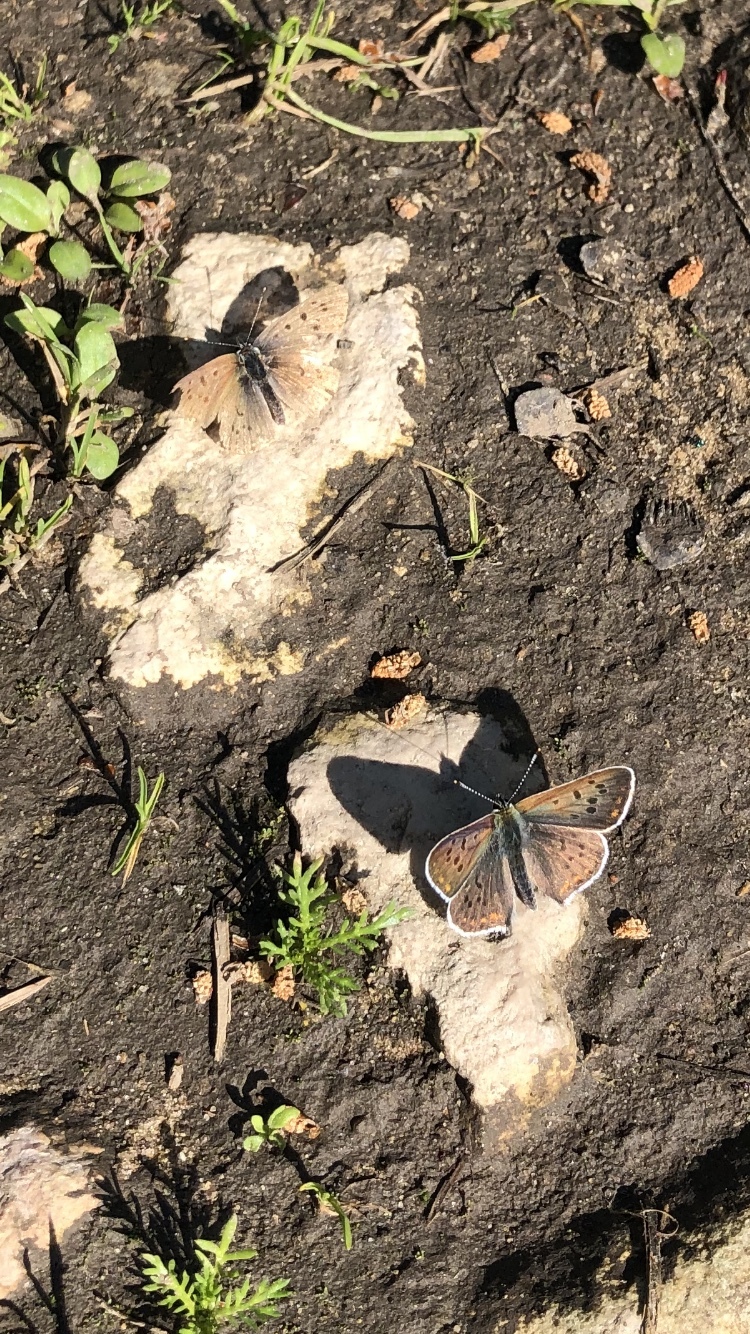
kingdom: Animalia
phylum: Arthropoda
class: Insecta
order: Lepidoptera
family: Lycaenidae
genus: Loweia
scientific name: Loweia tityrus
